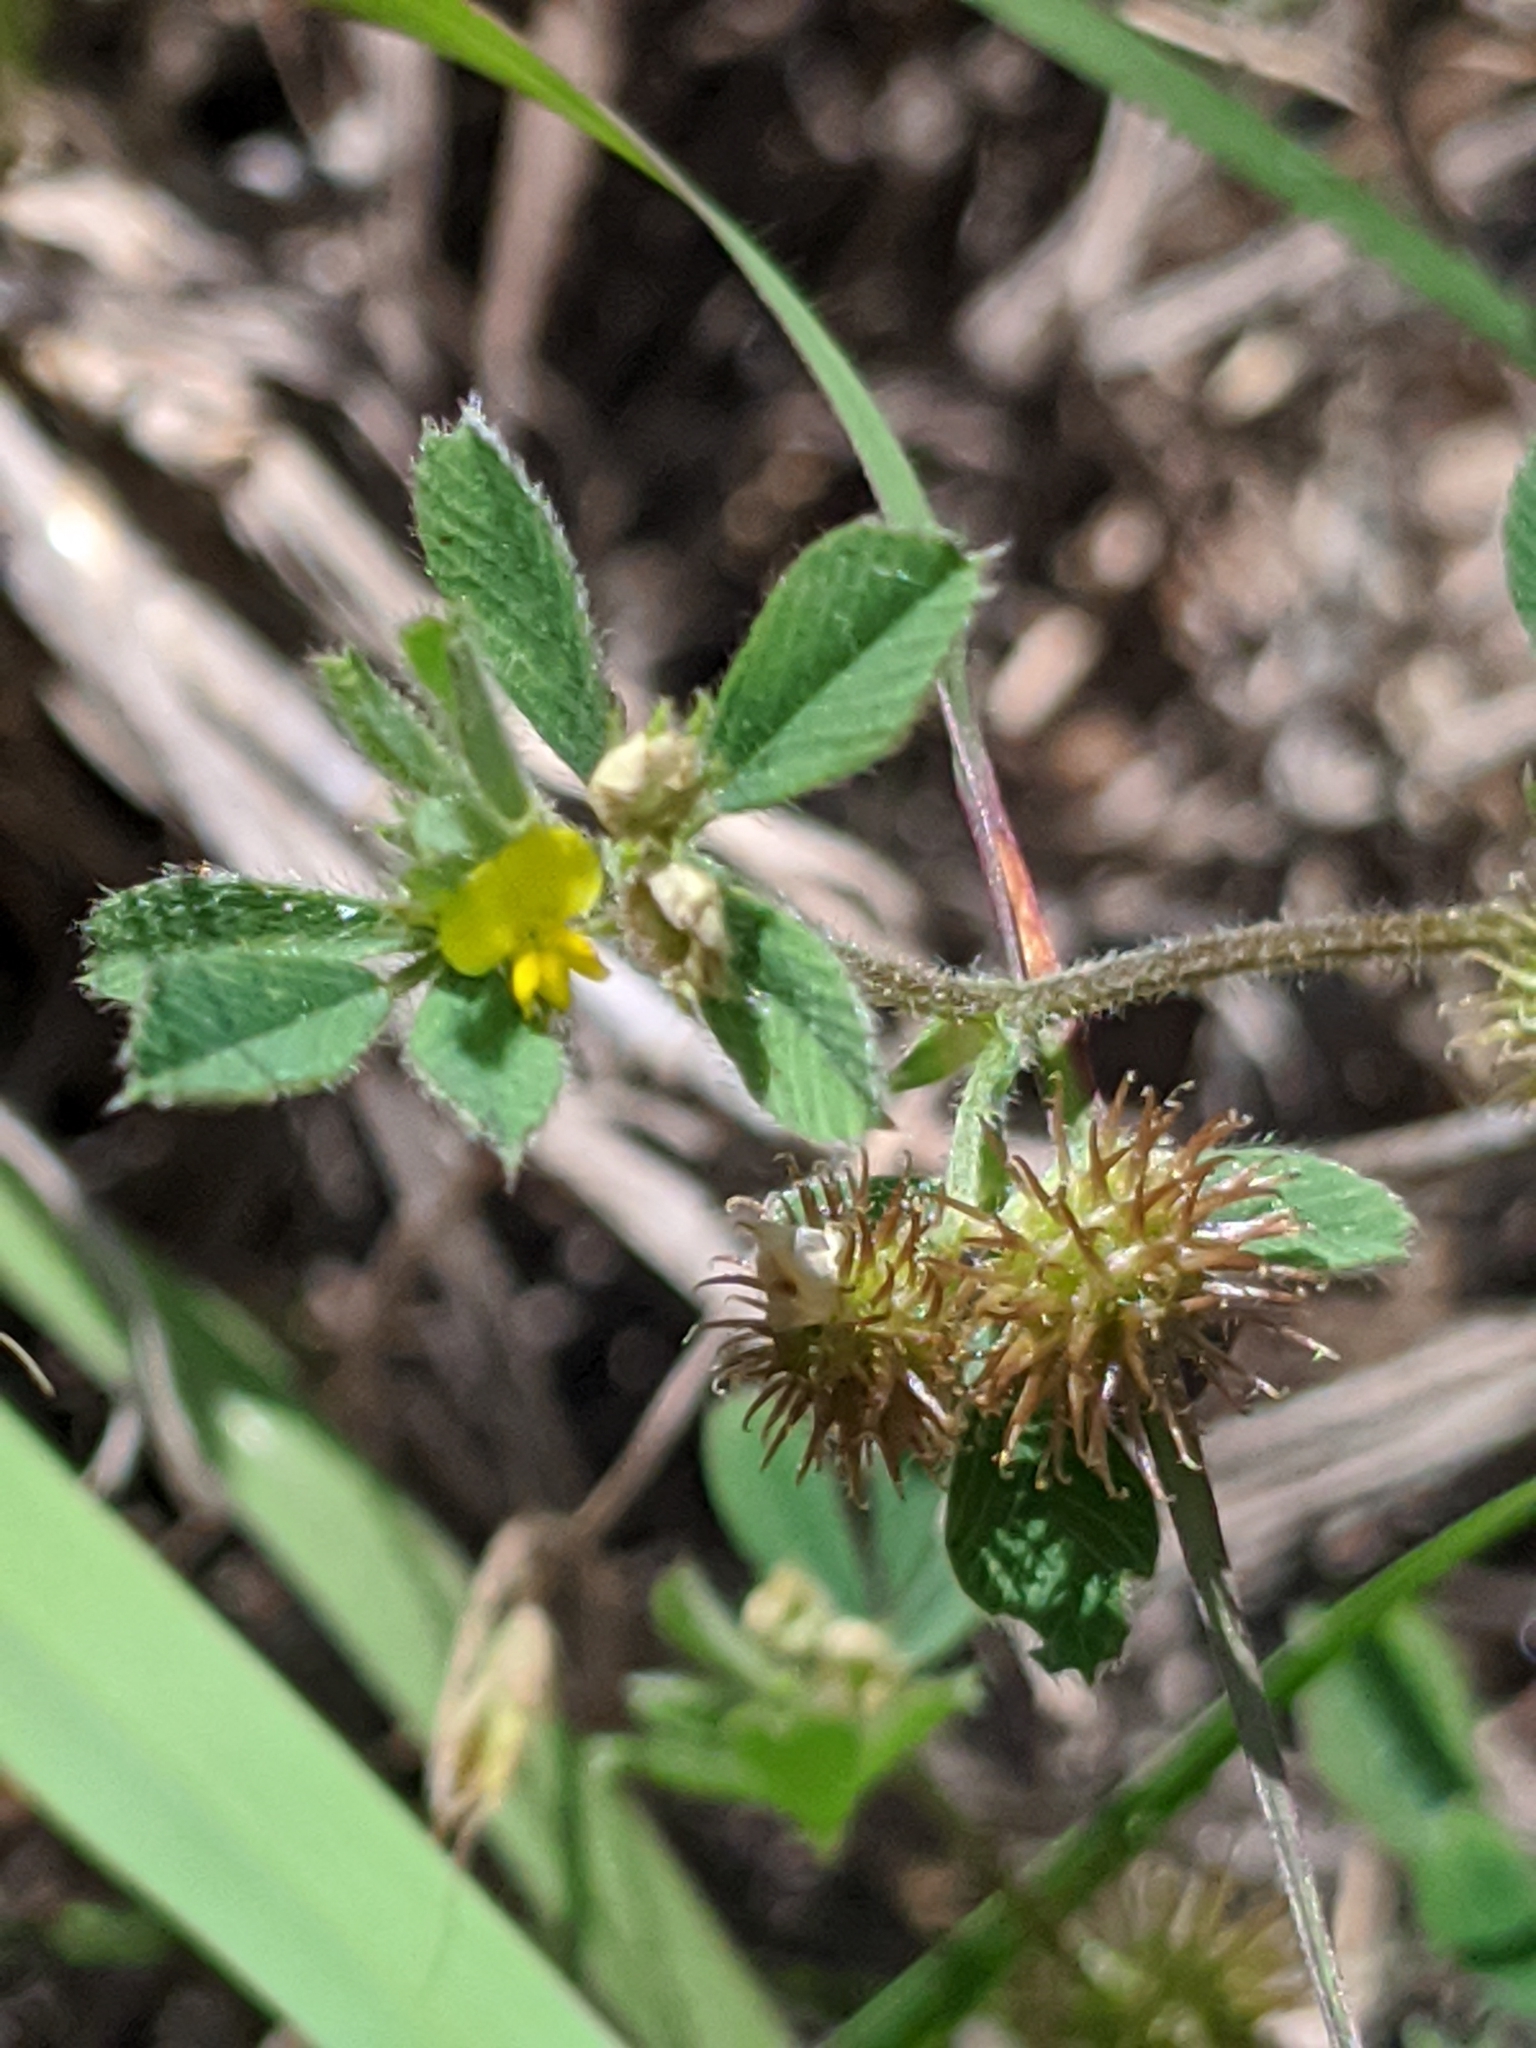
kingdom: Plantae
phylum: Tracheophyta
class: Magnoliopsida
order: Fabales
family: Fabaceae
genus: Medicago
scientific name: Medicago minima
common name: Little bur-clover
